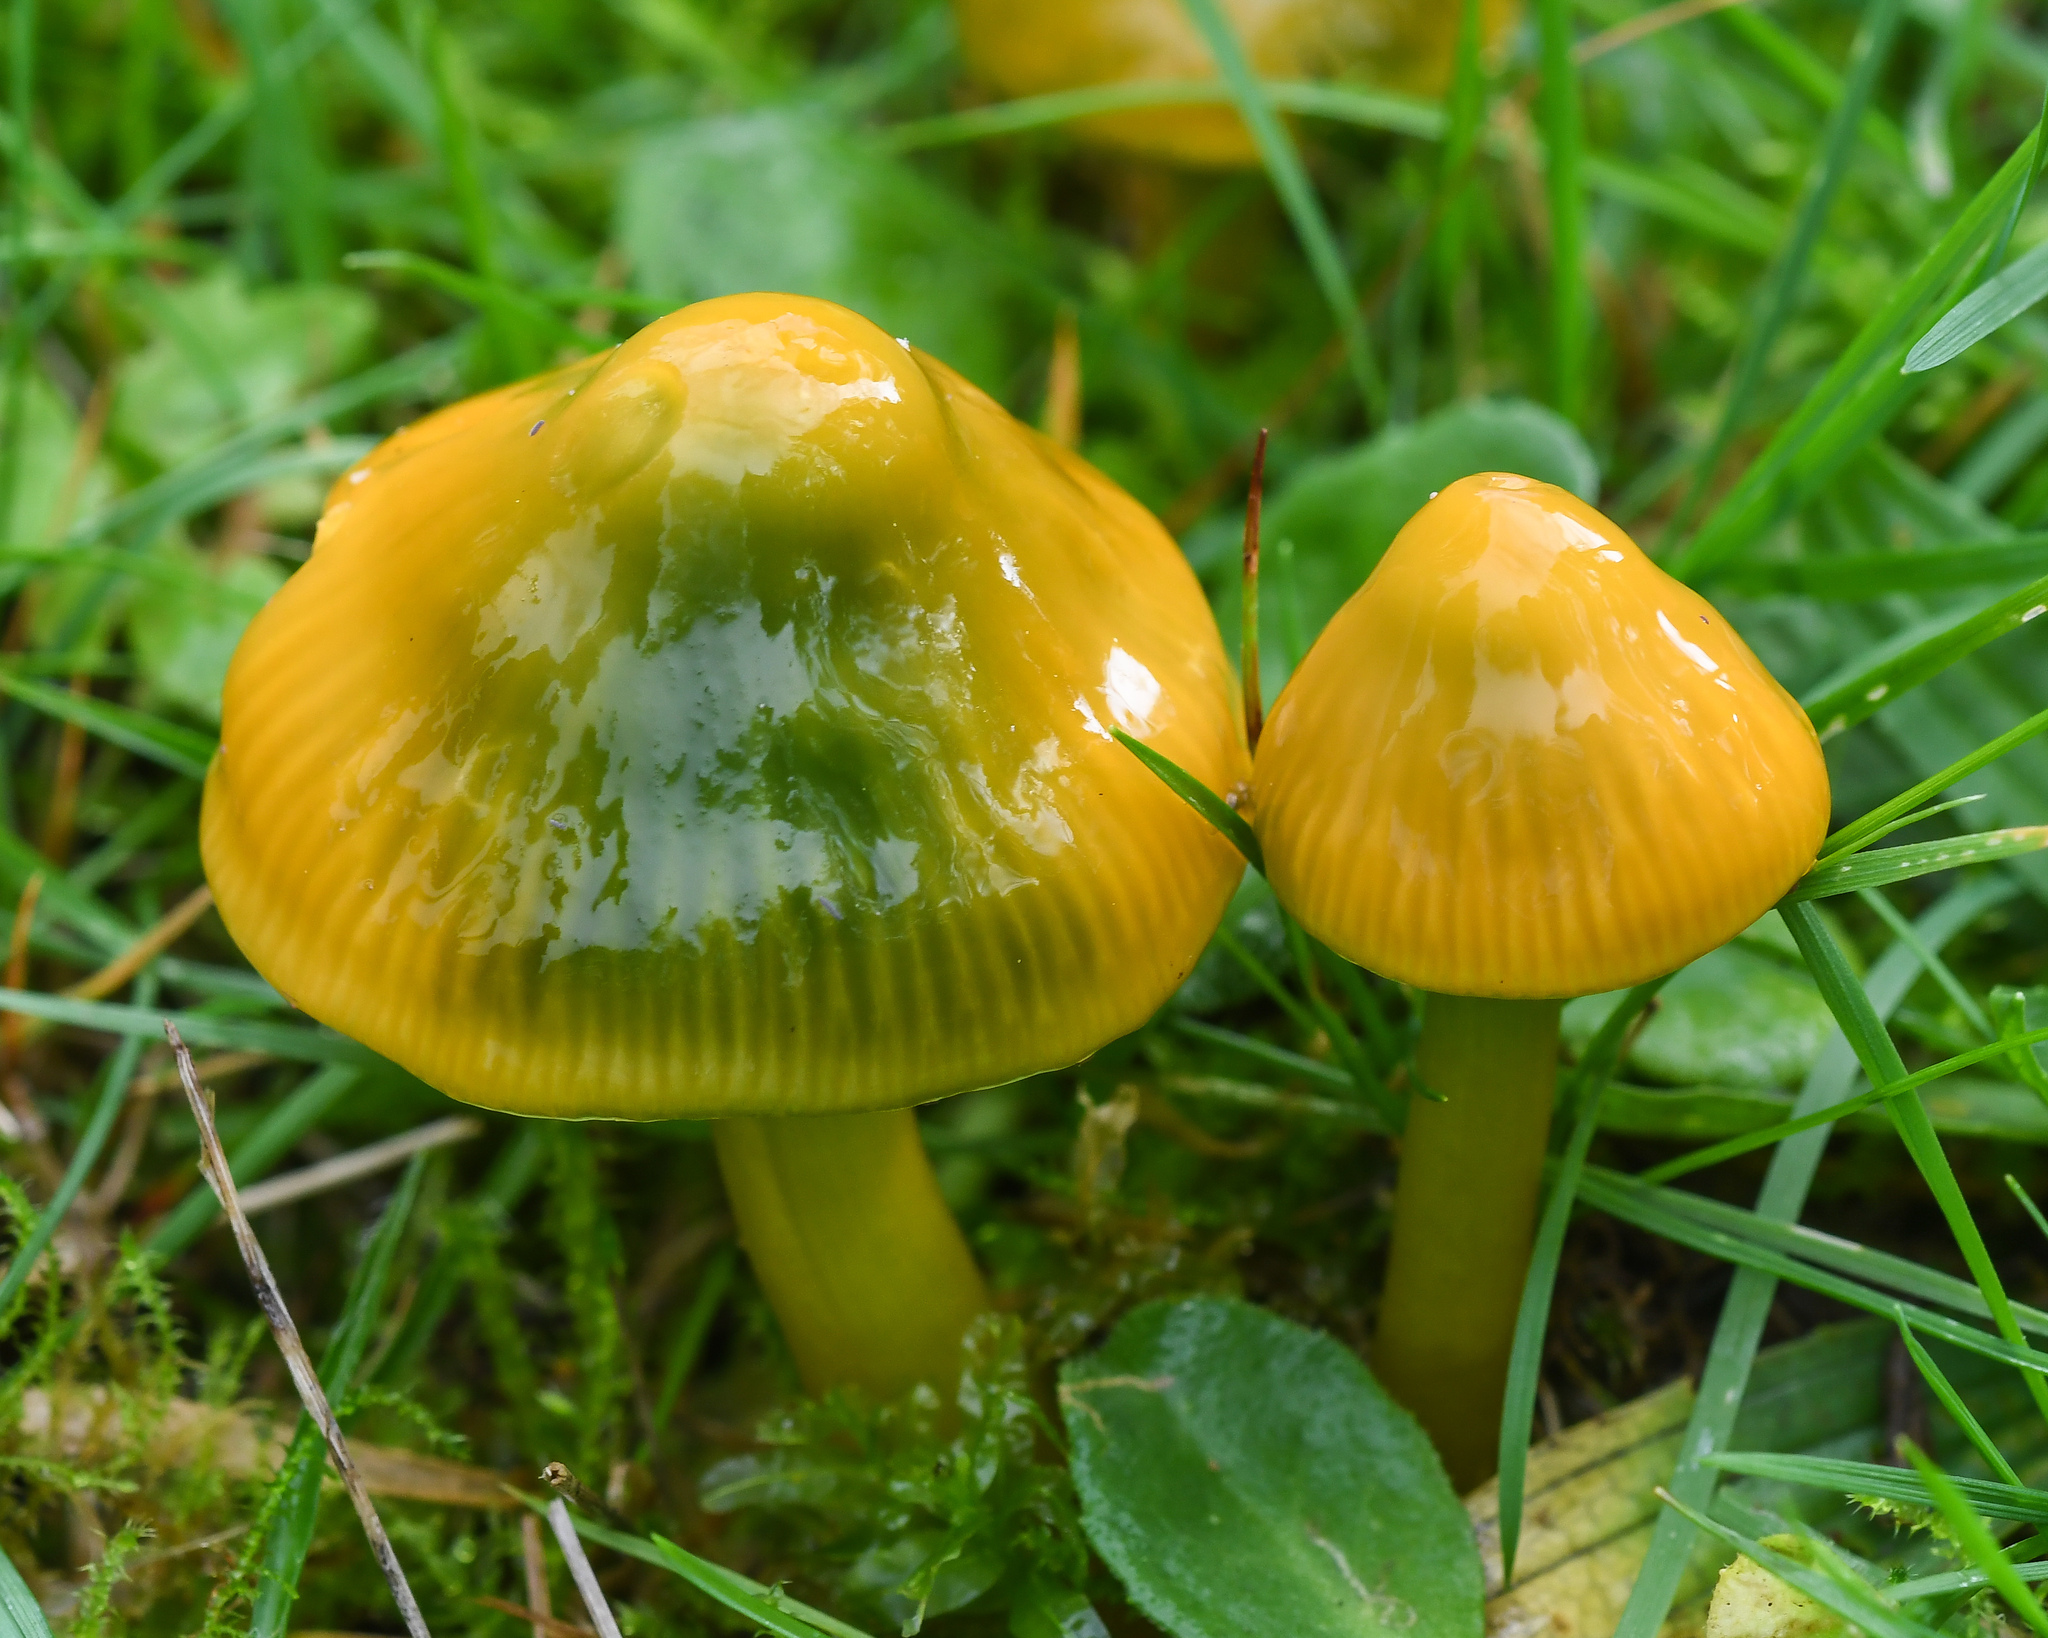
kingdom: Fungi
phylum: Basidiomycota
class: Agaricomycetes
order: Agaricales
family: Hygrophoraceae
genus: Gliophorus
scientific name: Gliophorus psittacinus
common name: Parrot wax-cap
